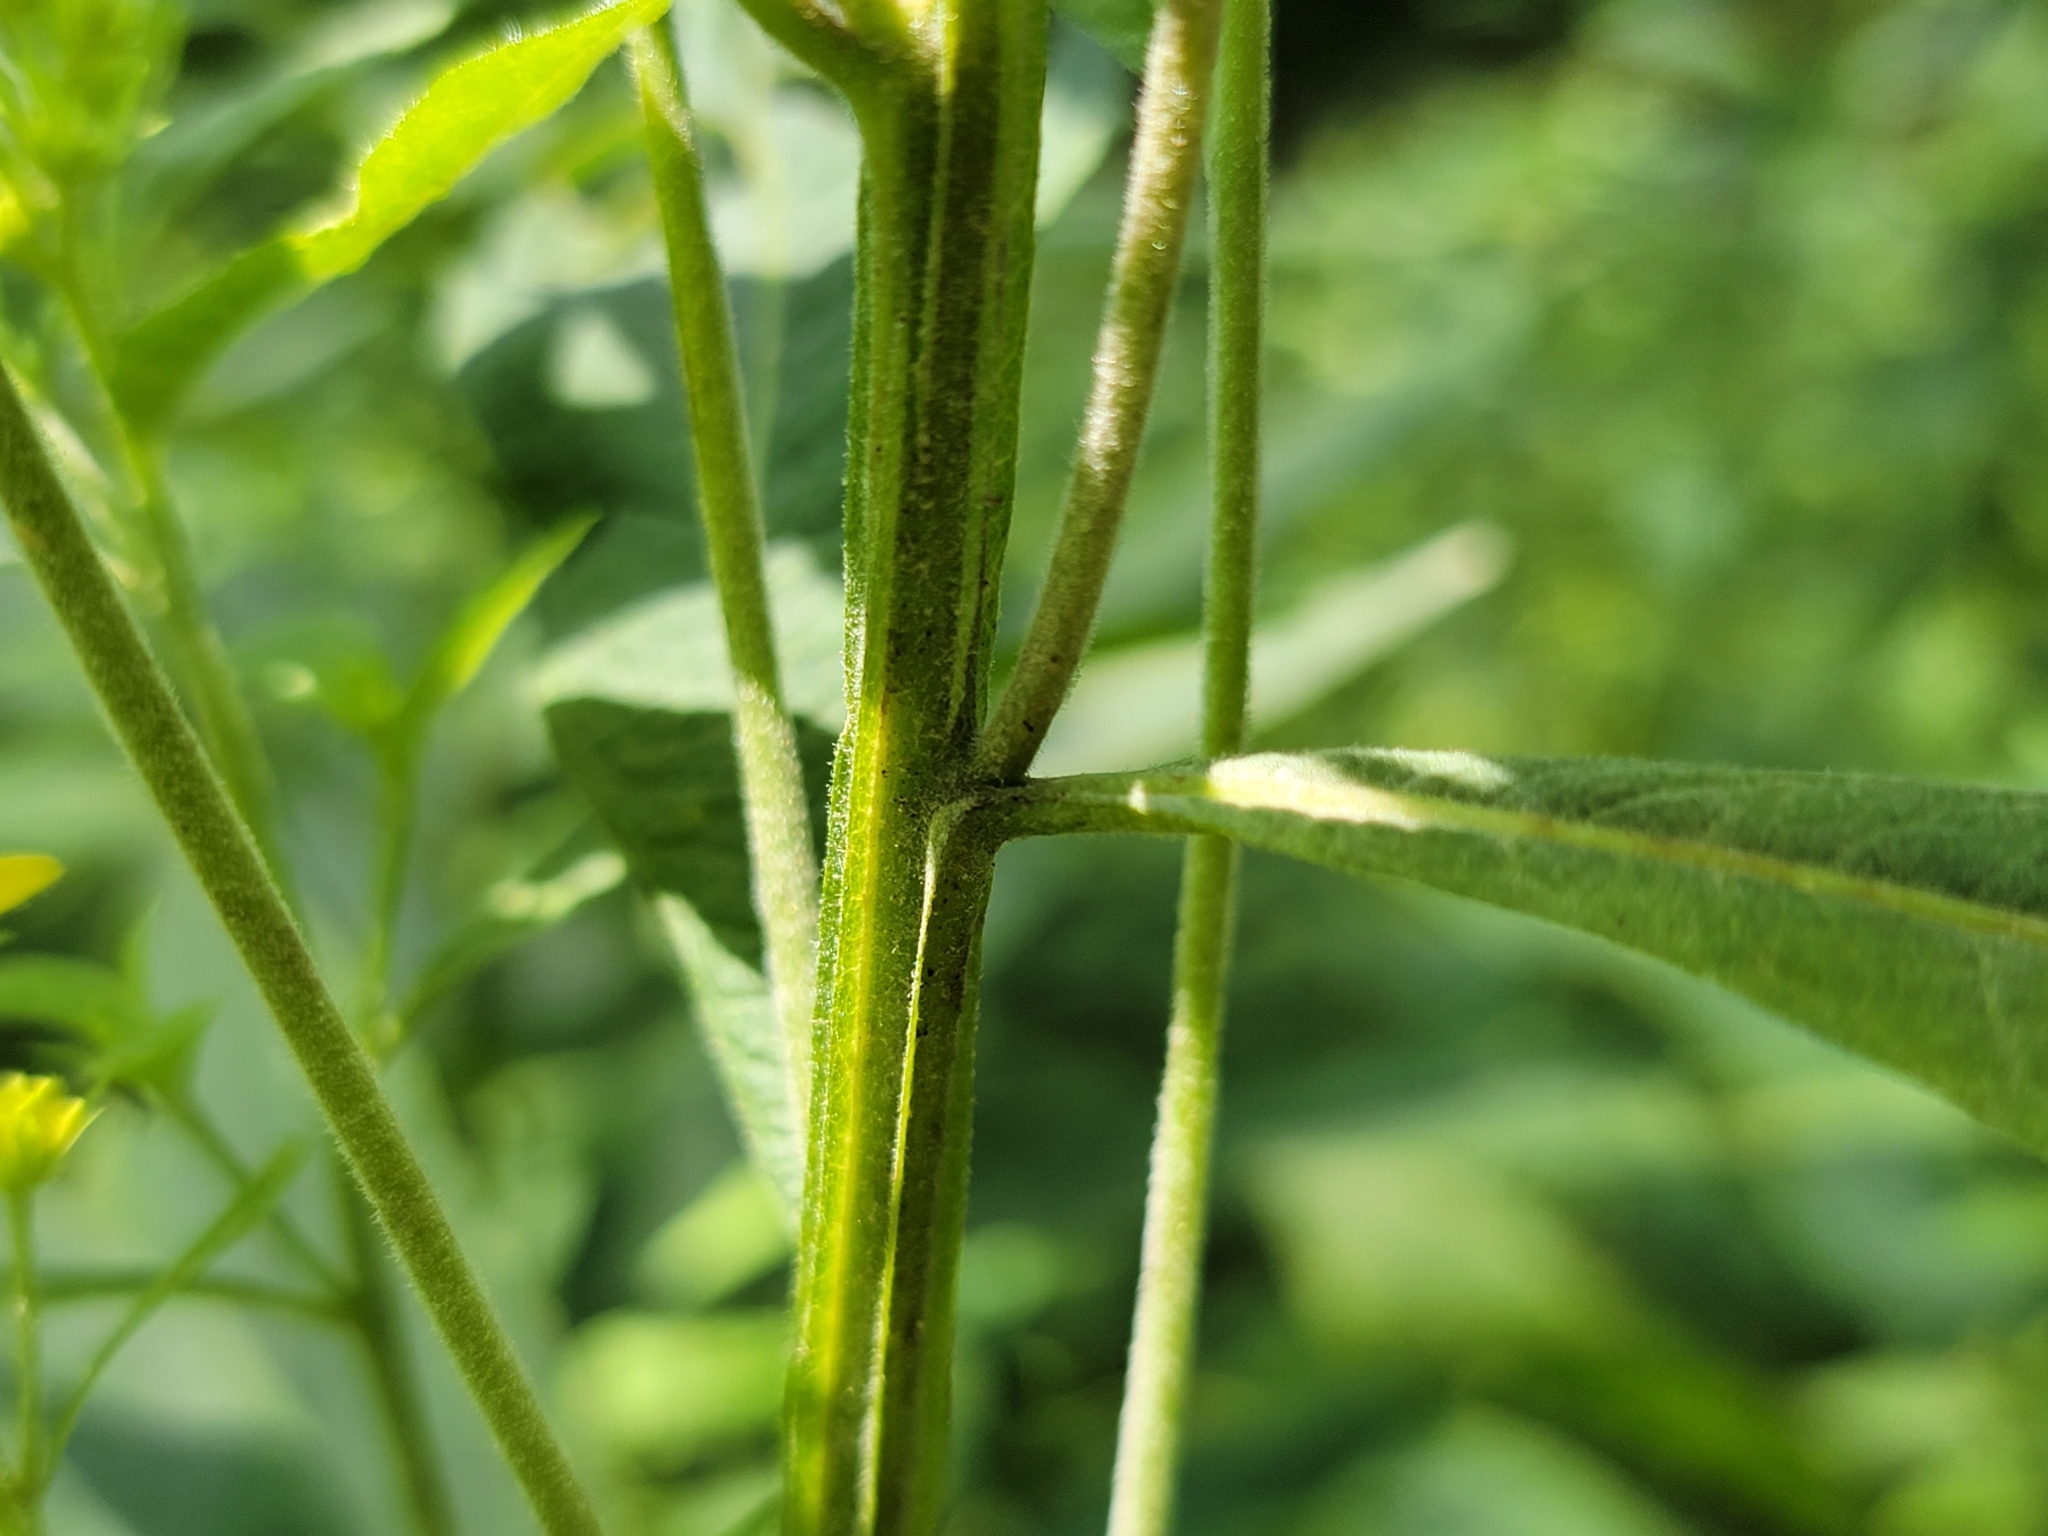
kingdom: Plantae
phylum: Tracheophyta
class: Magnoliopsida
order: Asterales
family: Asteraceae
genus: Verbesina
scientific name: Verbesina alternifolia
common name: Wingstem
